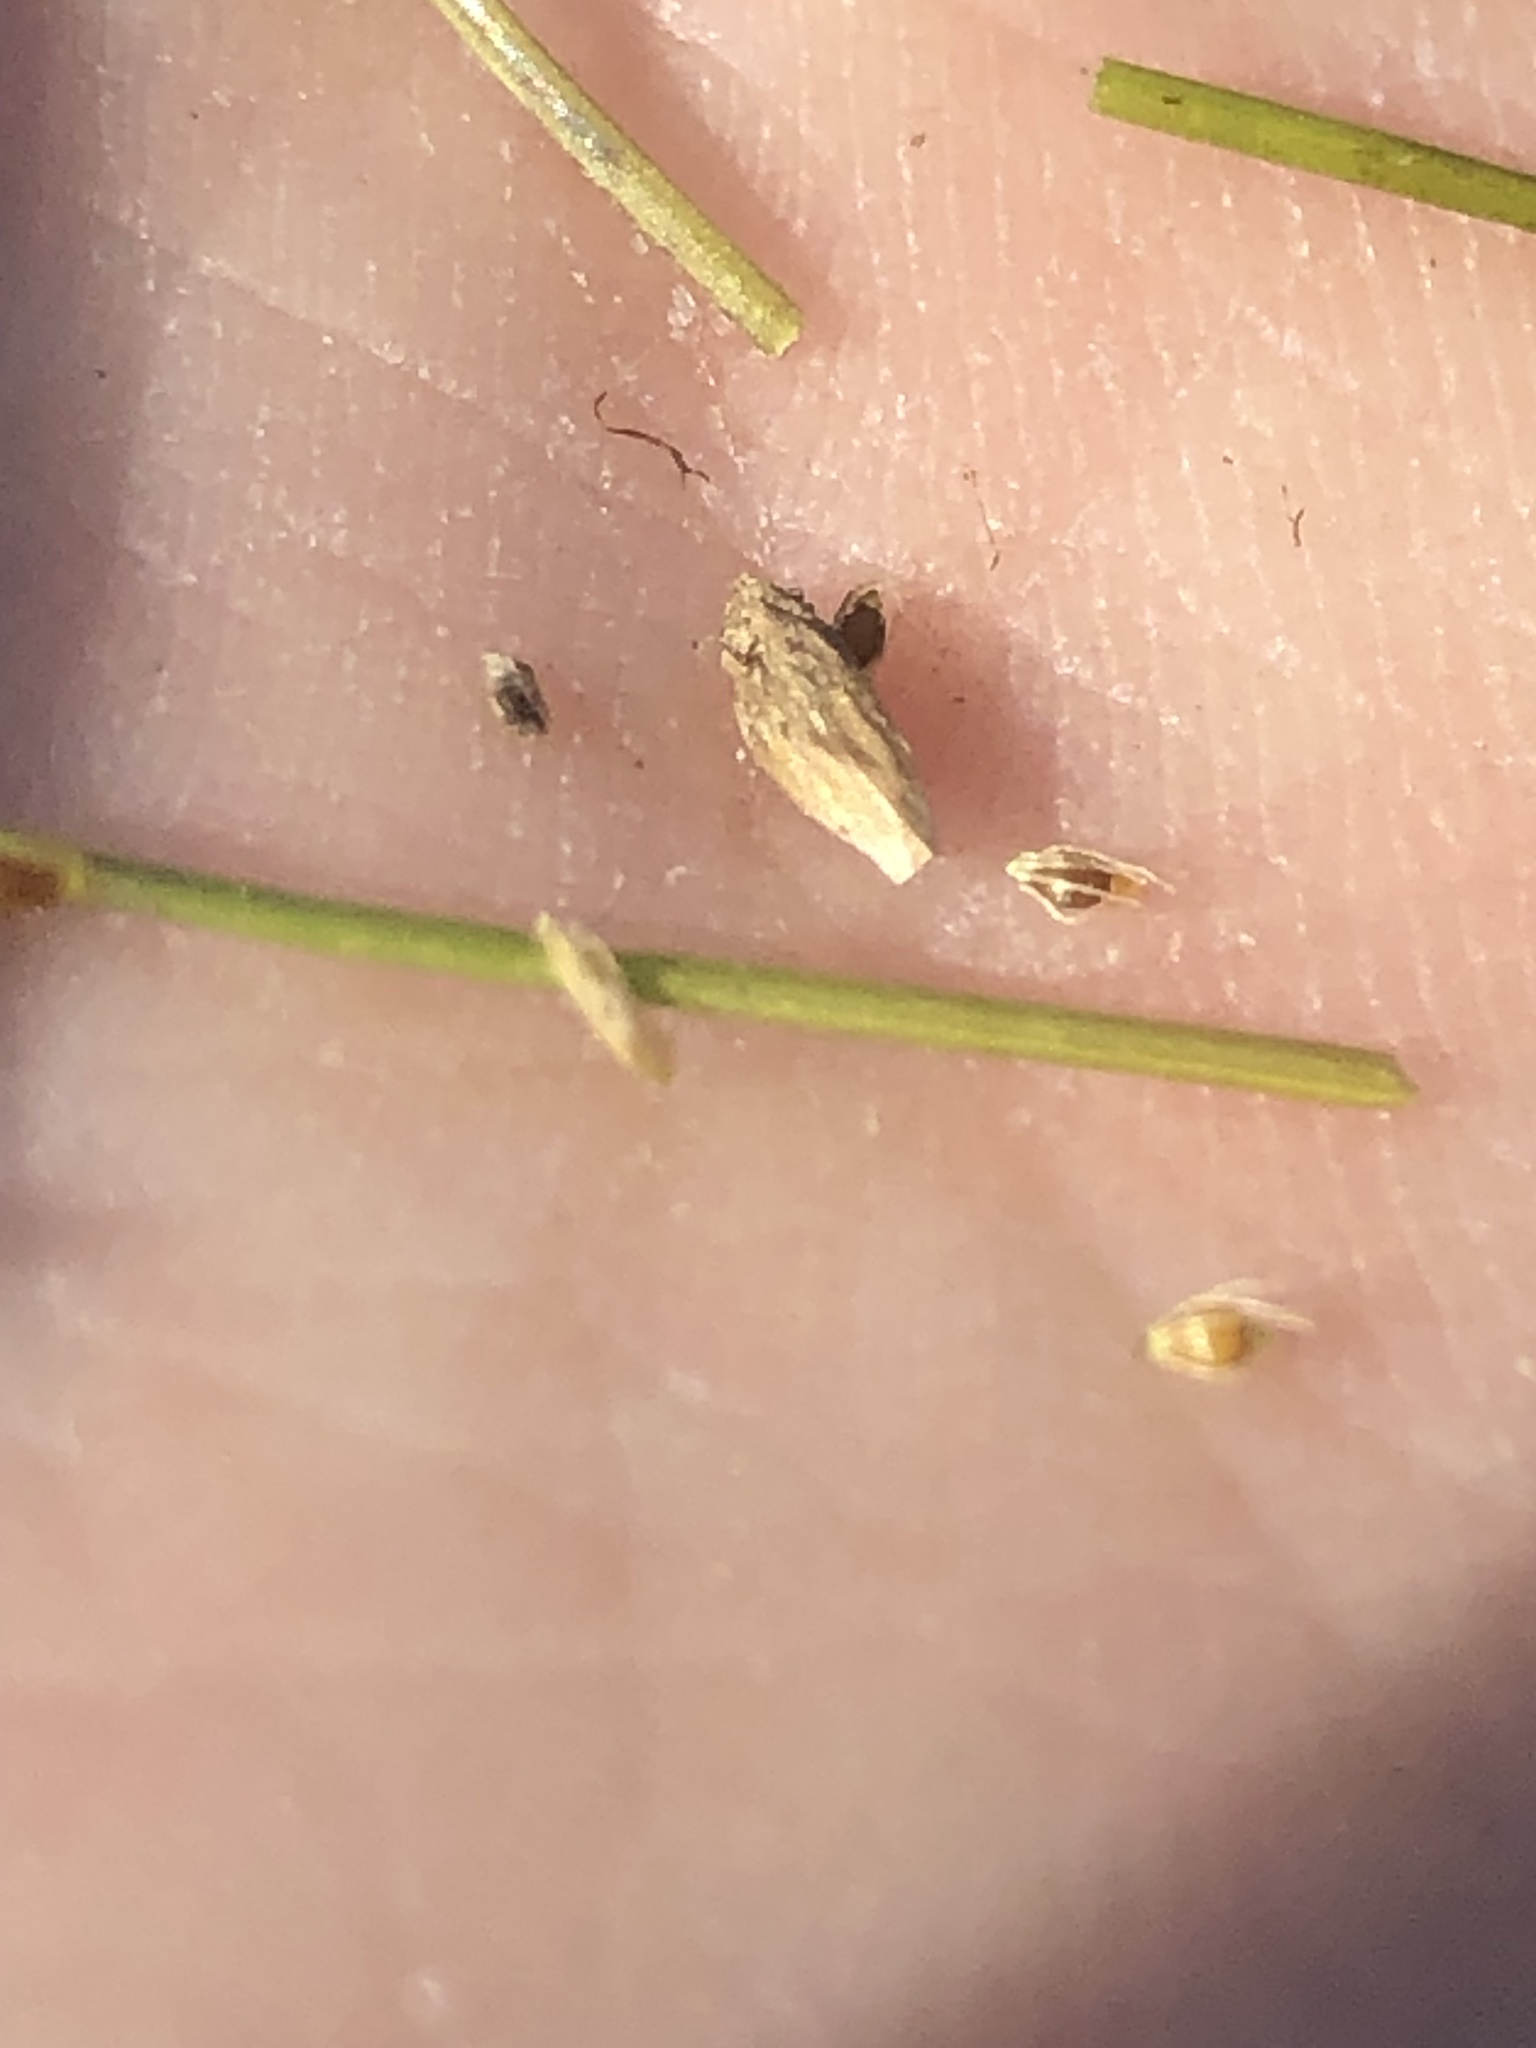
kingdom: Plantae
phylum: Tracheophyta
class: Liliopsida
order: Poales
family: Cyperaceae
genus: Eleocharis
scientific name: Eleocharis flavescens
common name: Yellow spikerush
